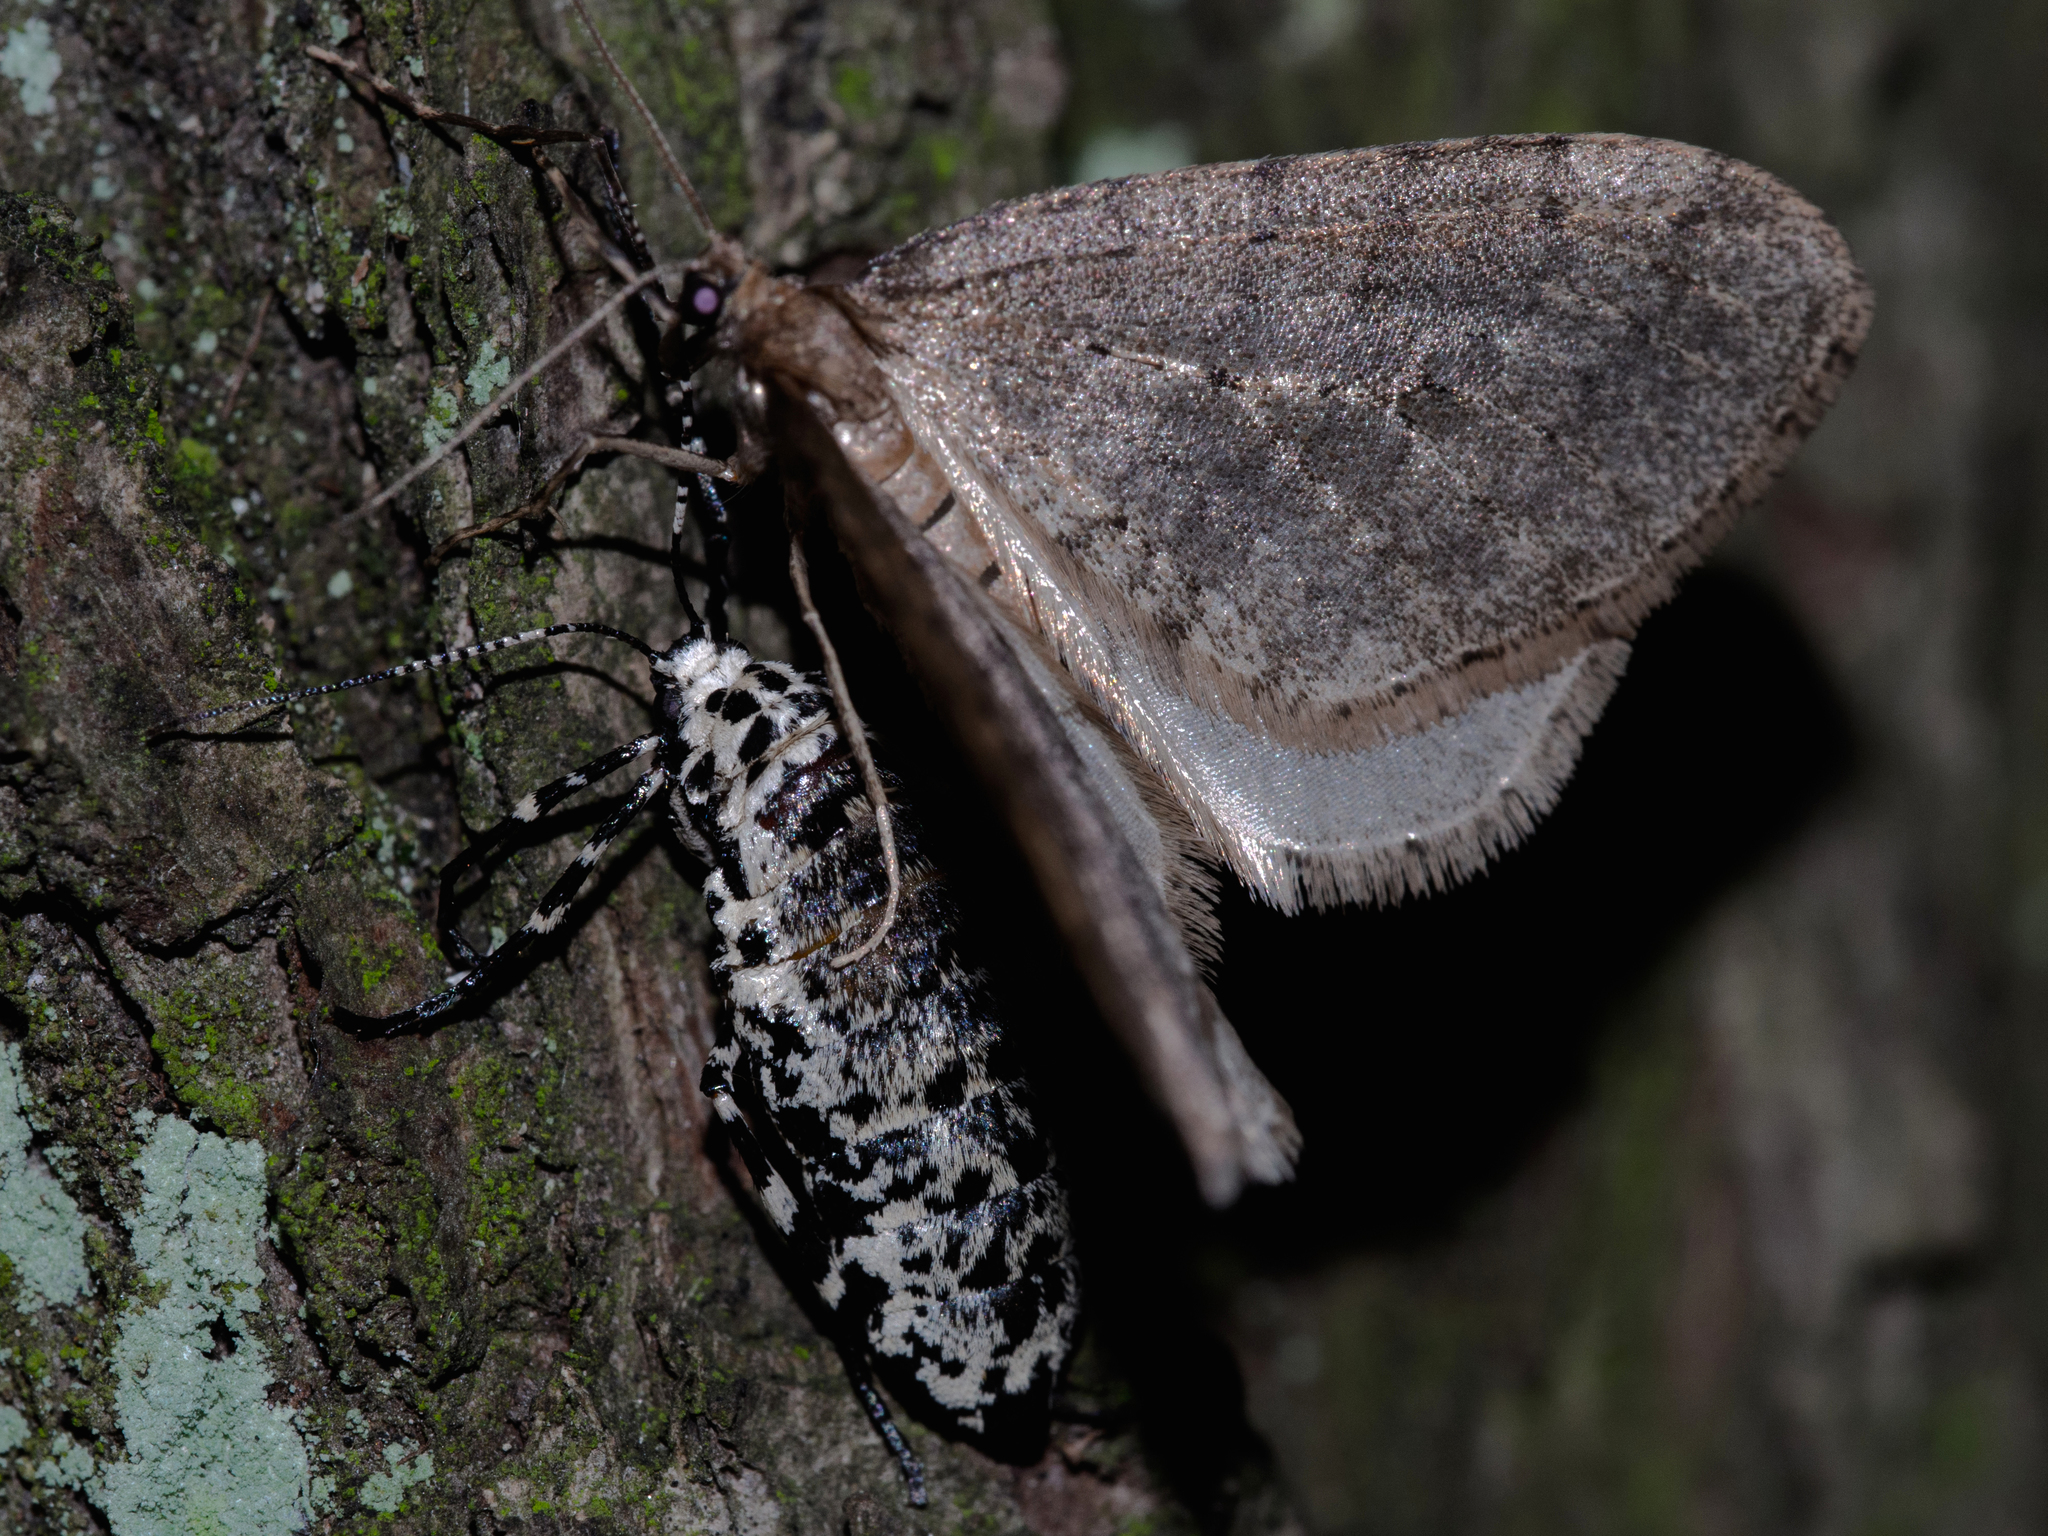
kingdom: Animalia
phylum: Arthropoda
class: Insecta
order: Lepidoptera
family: Geometridae
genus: Erannis
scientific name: Erannis defoliaria
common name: Mottled umber
